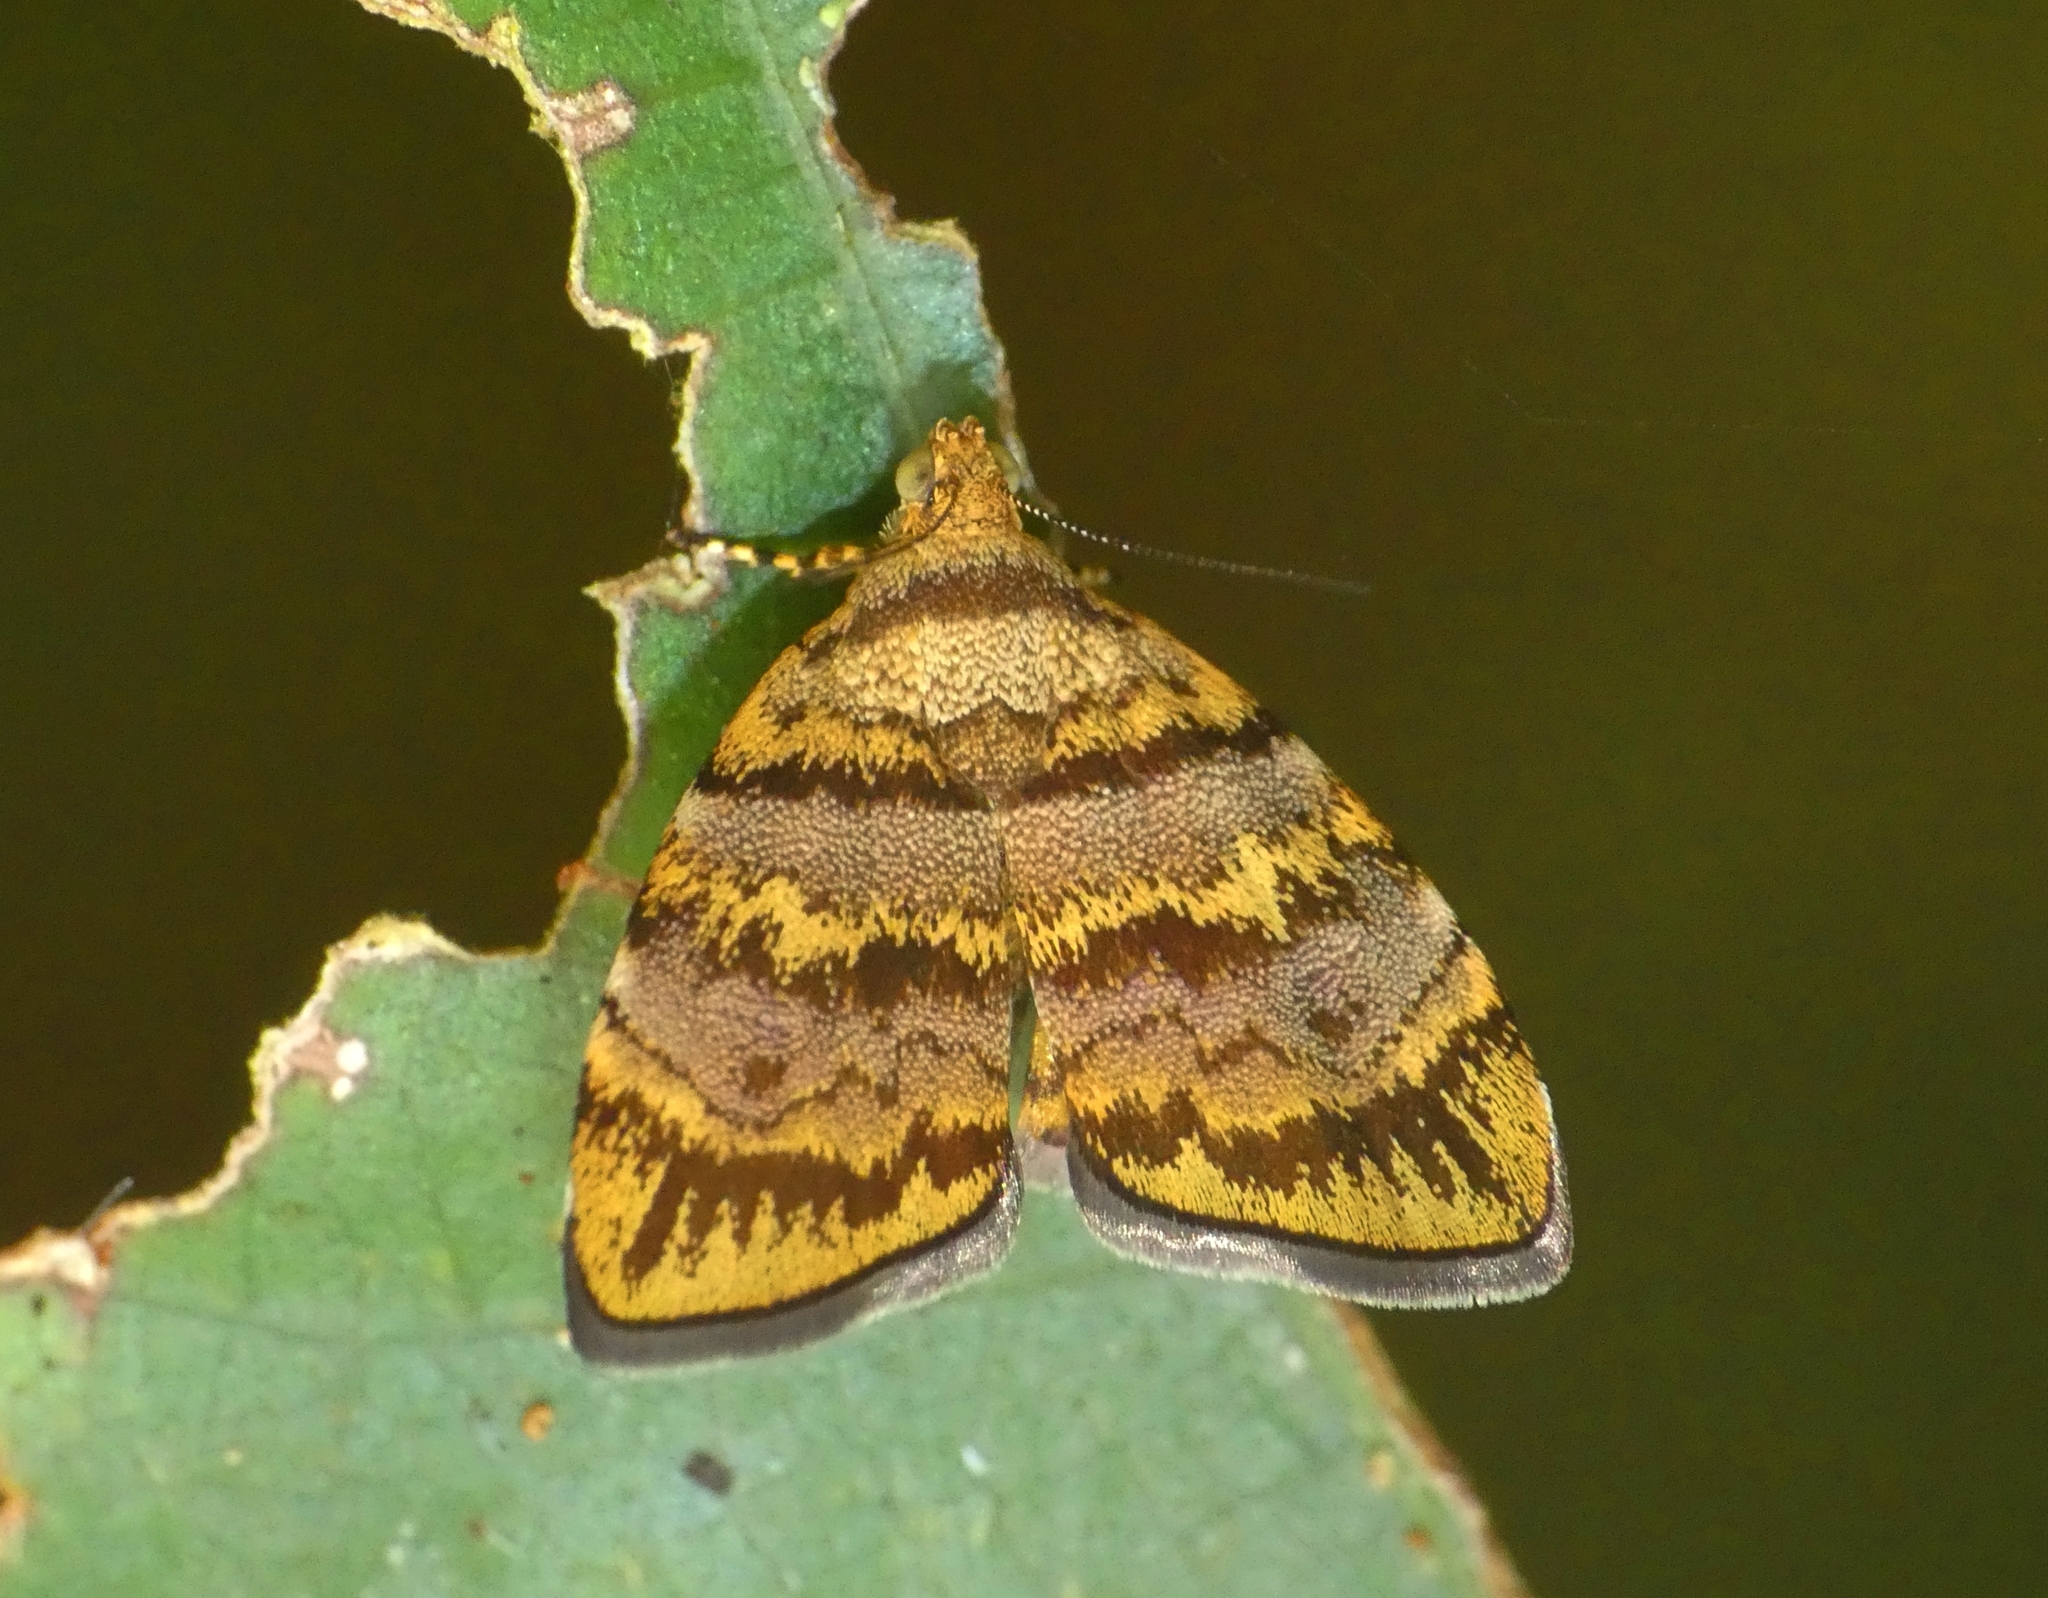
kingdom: Animalia
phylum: Arthropoda
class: Insecta
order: Lepidoptera
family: Choreutidae
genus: Choreutis
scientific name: Choreutis limonias
